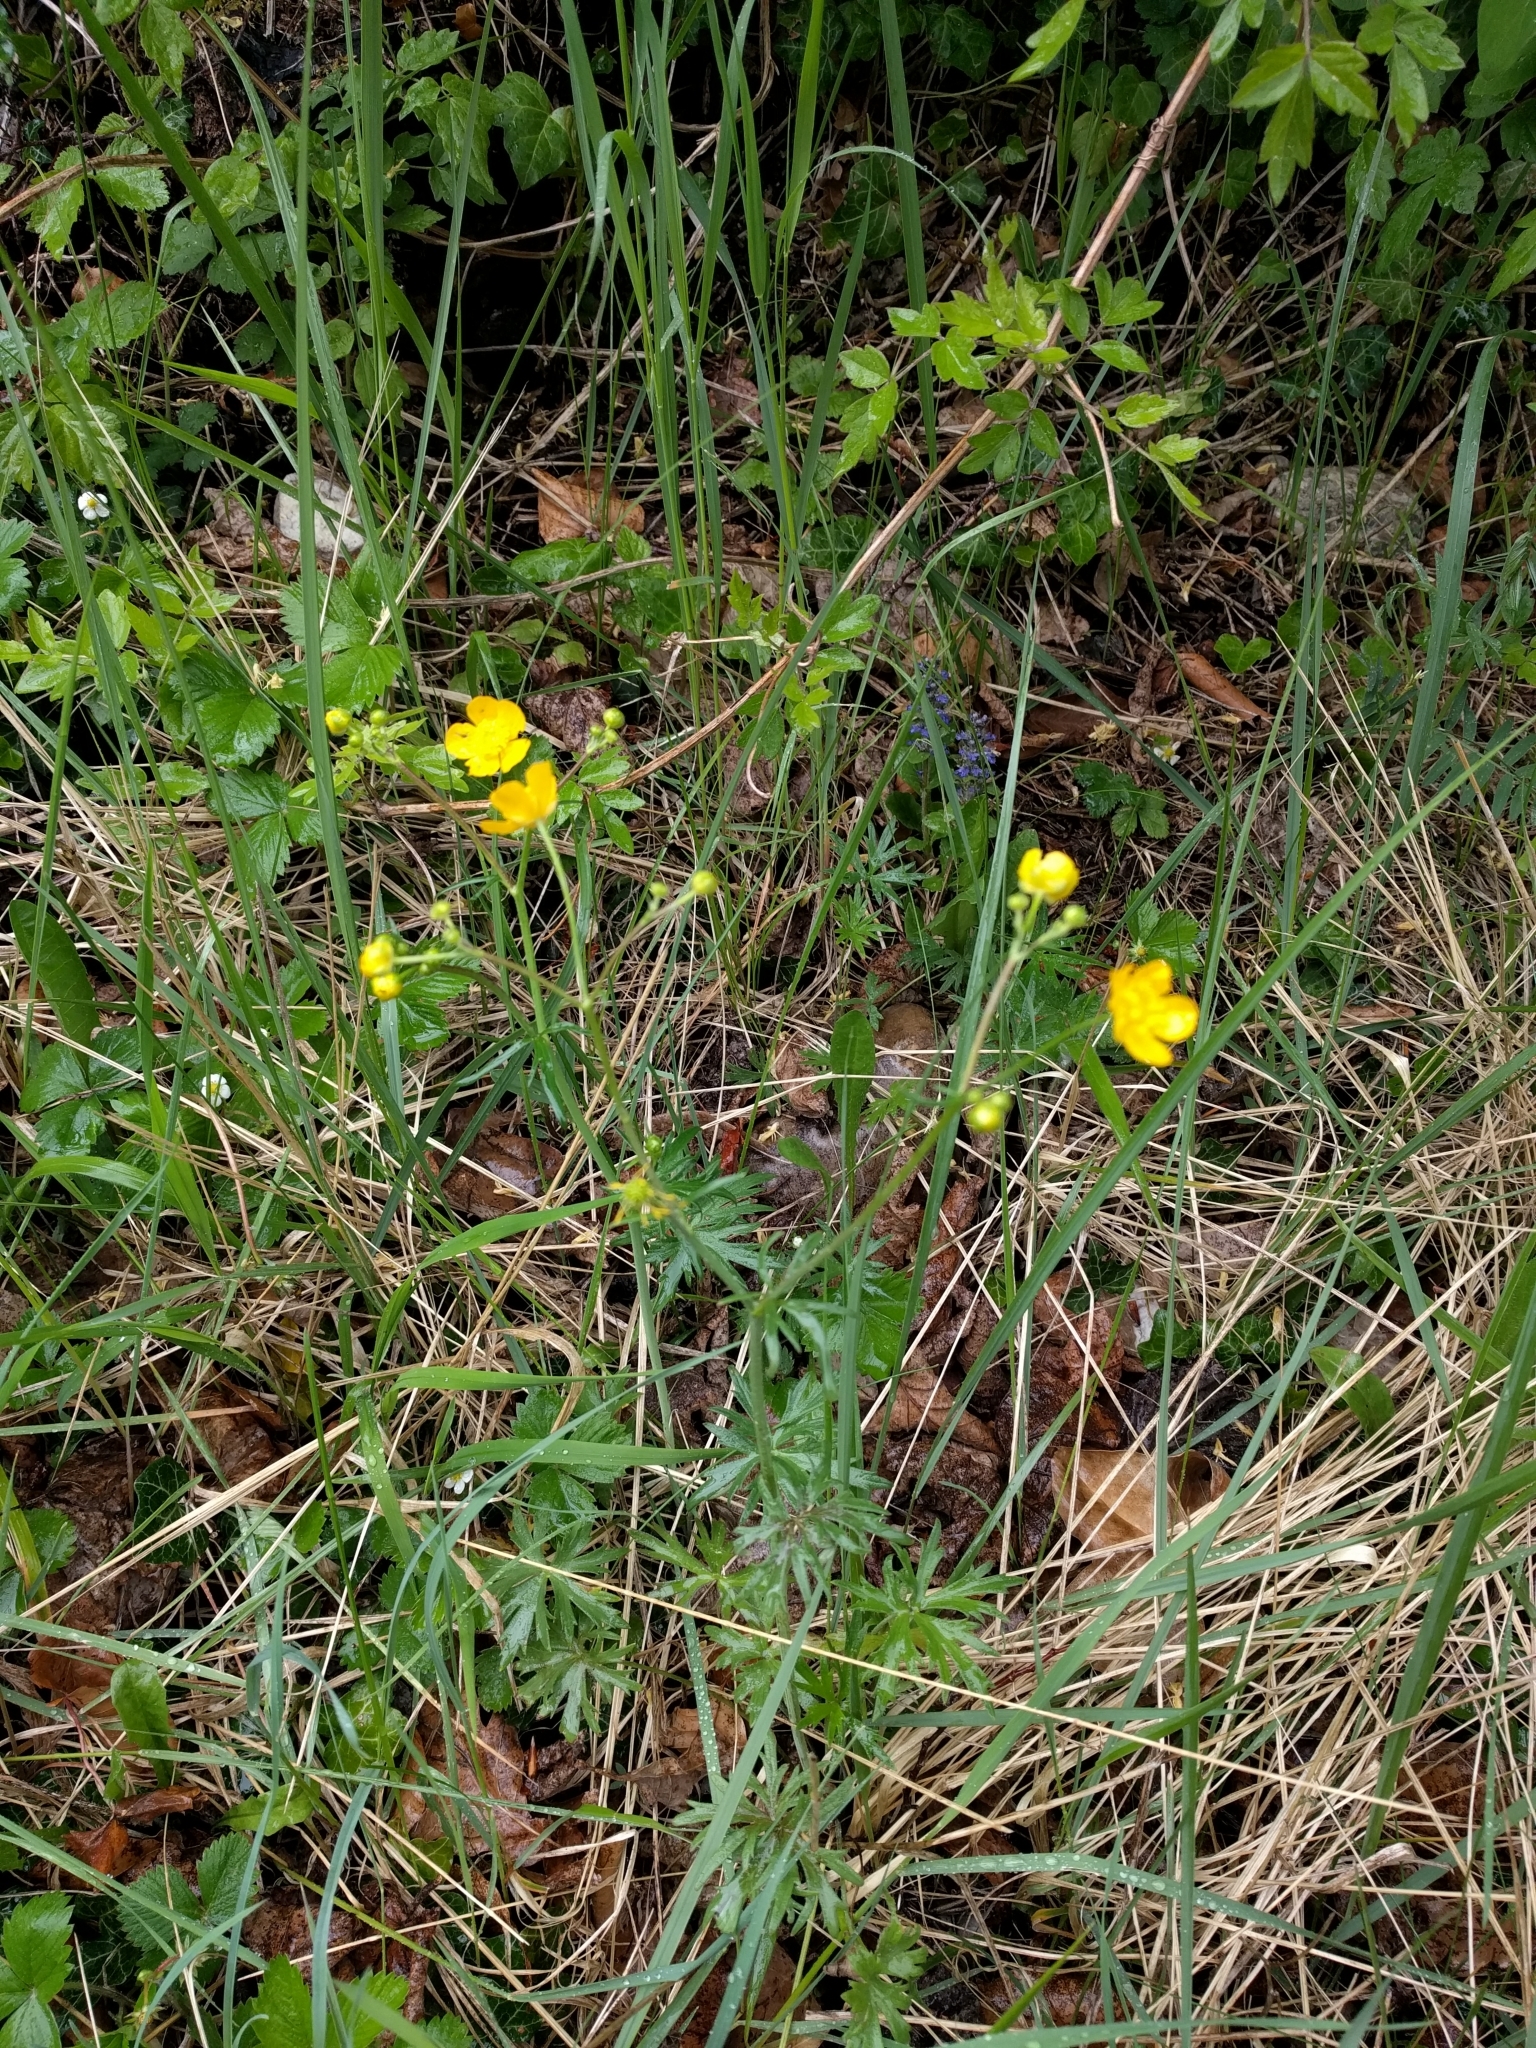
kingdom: Plantae
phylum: Tracheophyta
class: Magnoliopsida
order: Ranunculales
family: Ranunculaceae
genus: Ranunculus
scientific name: Ranunculus acris
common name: Meadow buttercup
